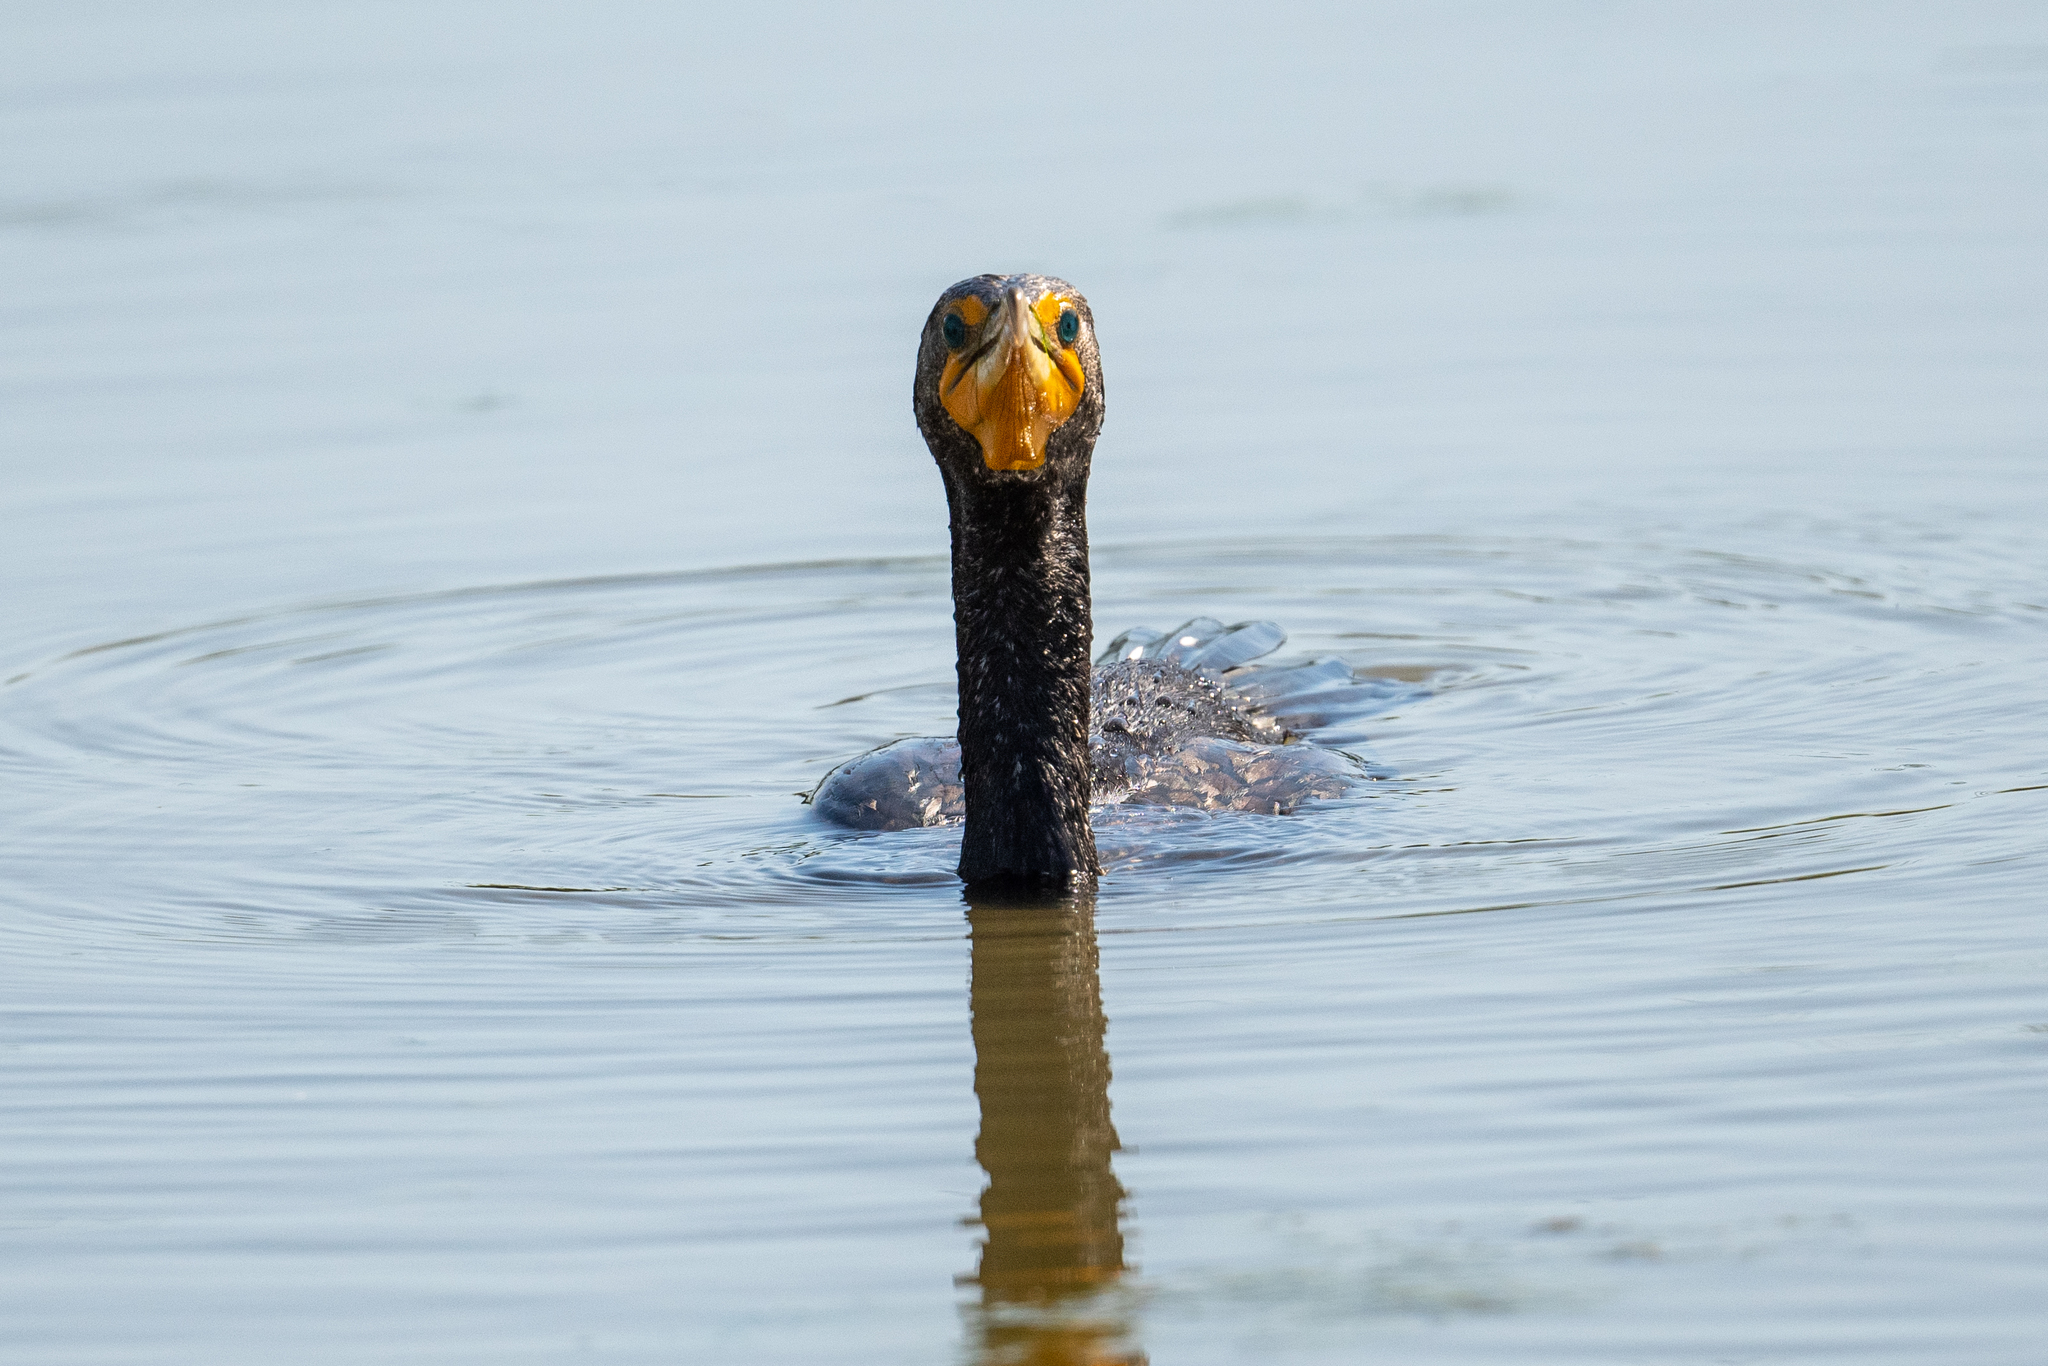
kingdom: Animalia
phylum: Chordata
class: Aves
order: Suliformes
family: Phalacrocoracidae
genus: Phalacrocorax
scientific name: Phalacrocorax auritus
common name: Double-crested cormorant
